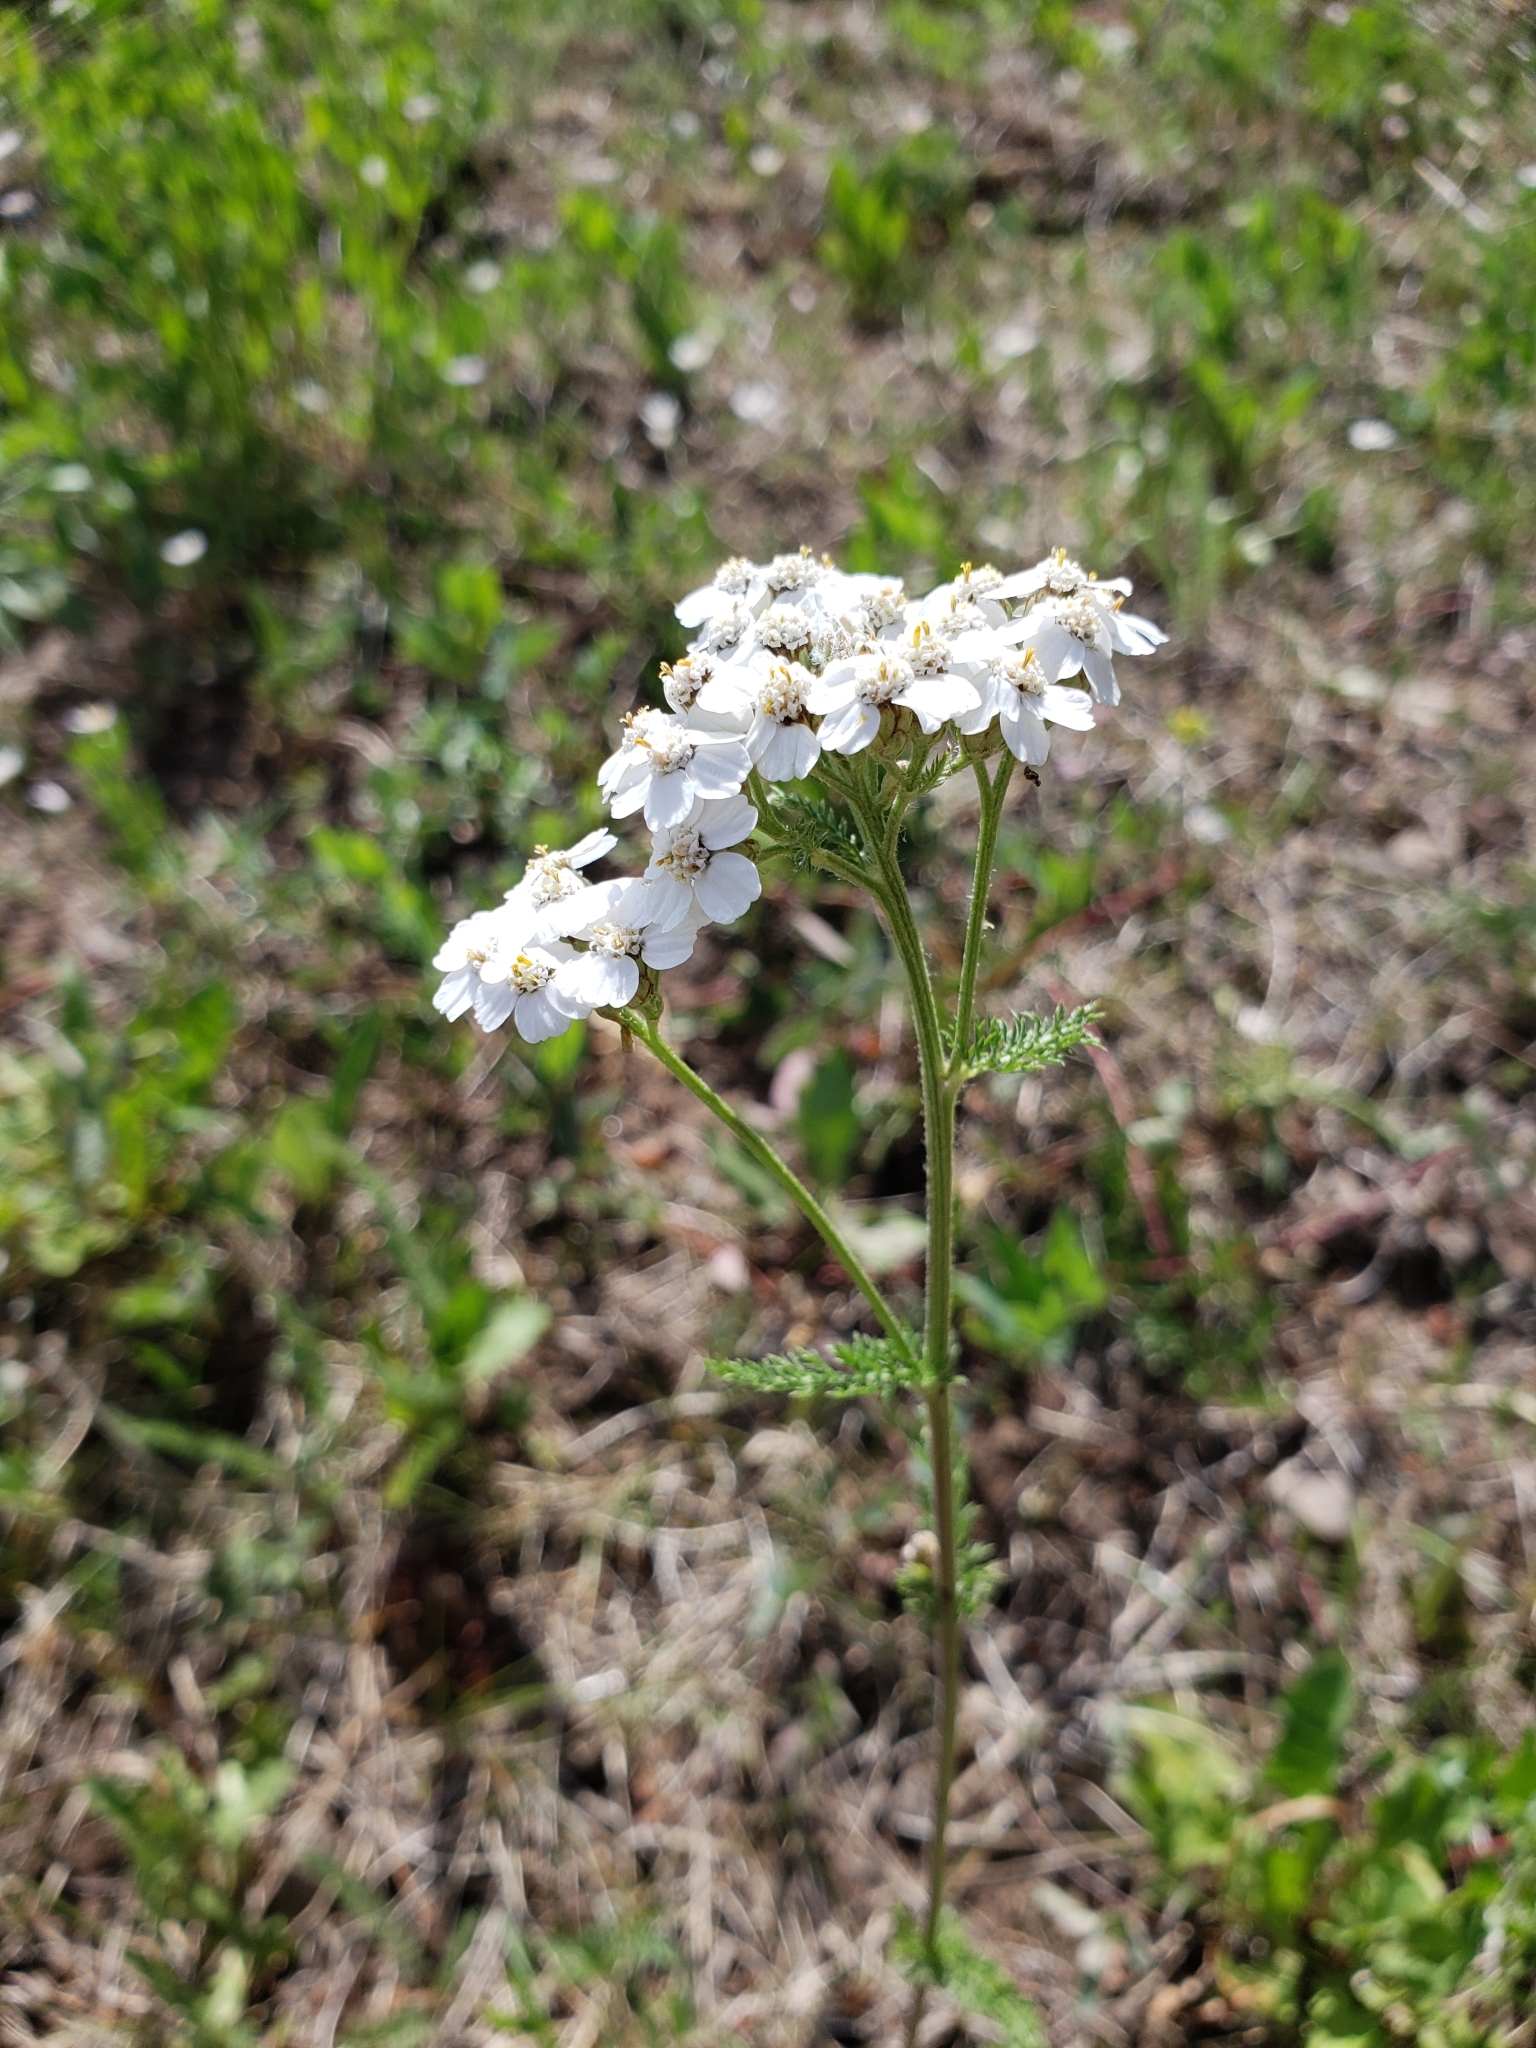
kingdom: Plantae
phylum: Tracheophyta
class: Magnoliopsida
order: Asterales
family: Asteraceae
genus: Achillea
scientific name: Achillea millefolium
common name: Yarrow
